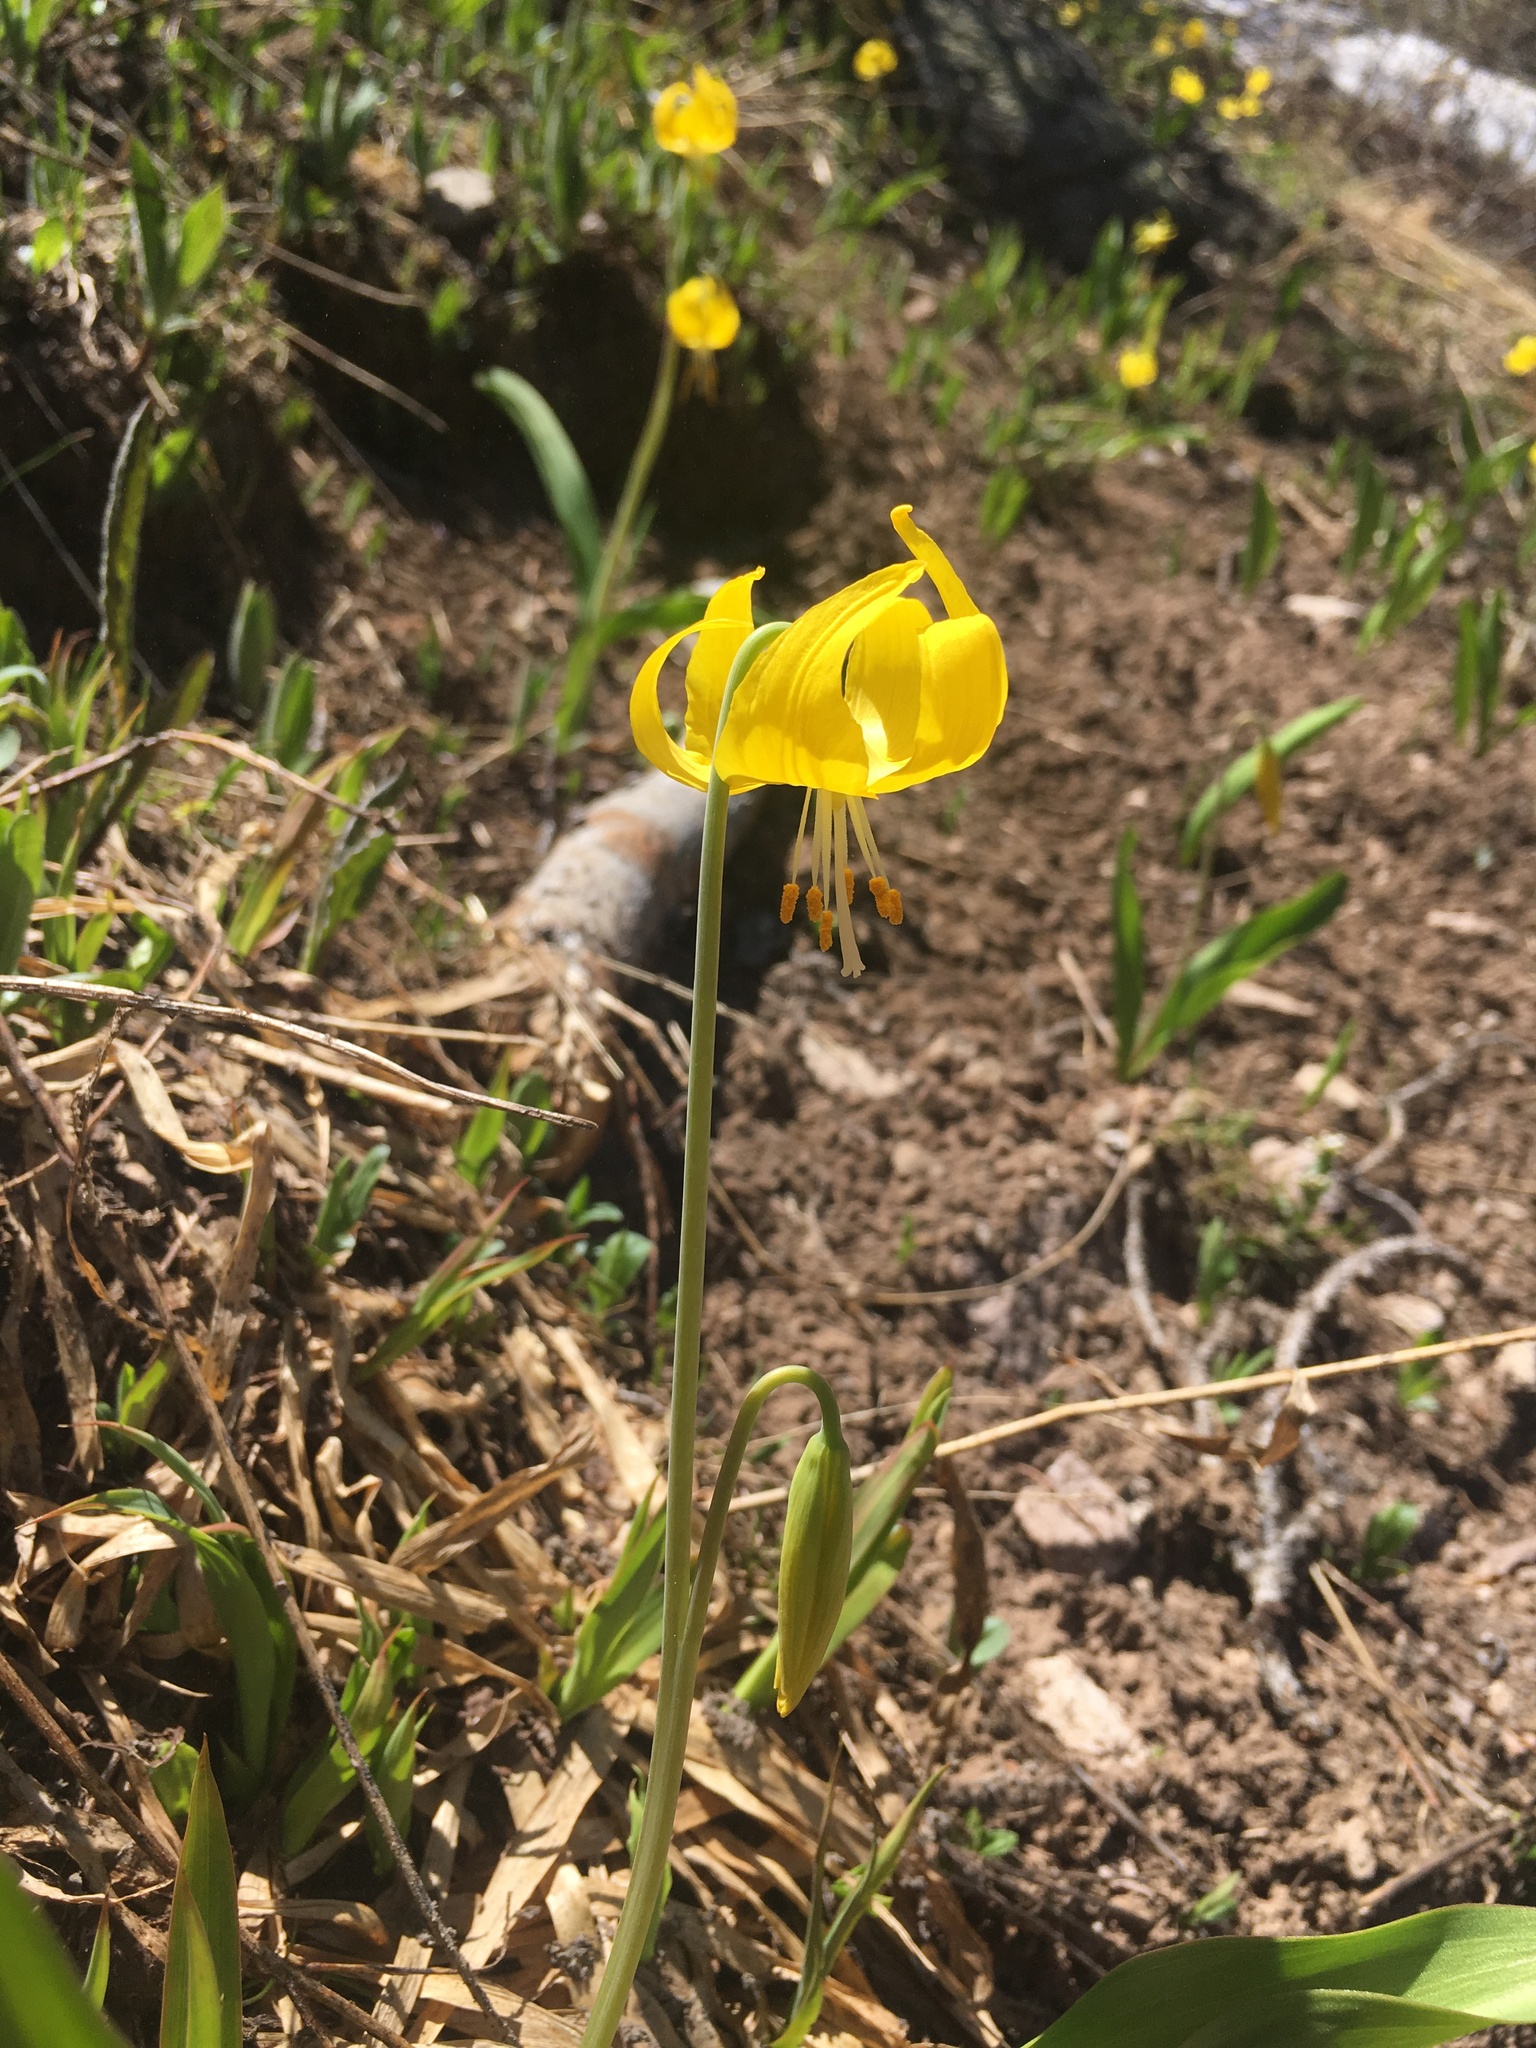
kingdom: Plantae
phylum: Tracheophyta
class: Liliopsida
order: Liliales
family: Liliaceae
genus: Erythronium
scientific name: Erythronium grandiflorum
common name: Avalanche-lily
